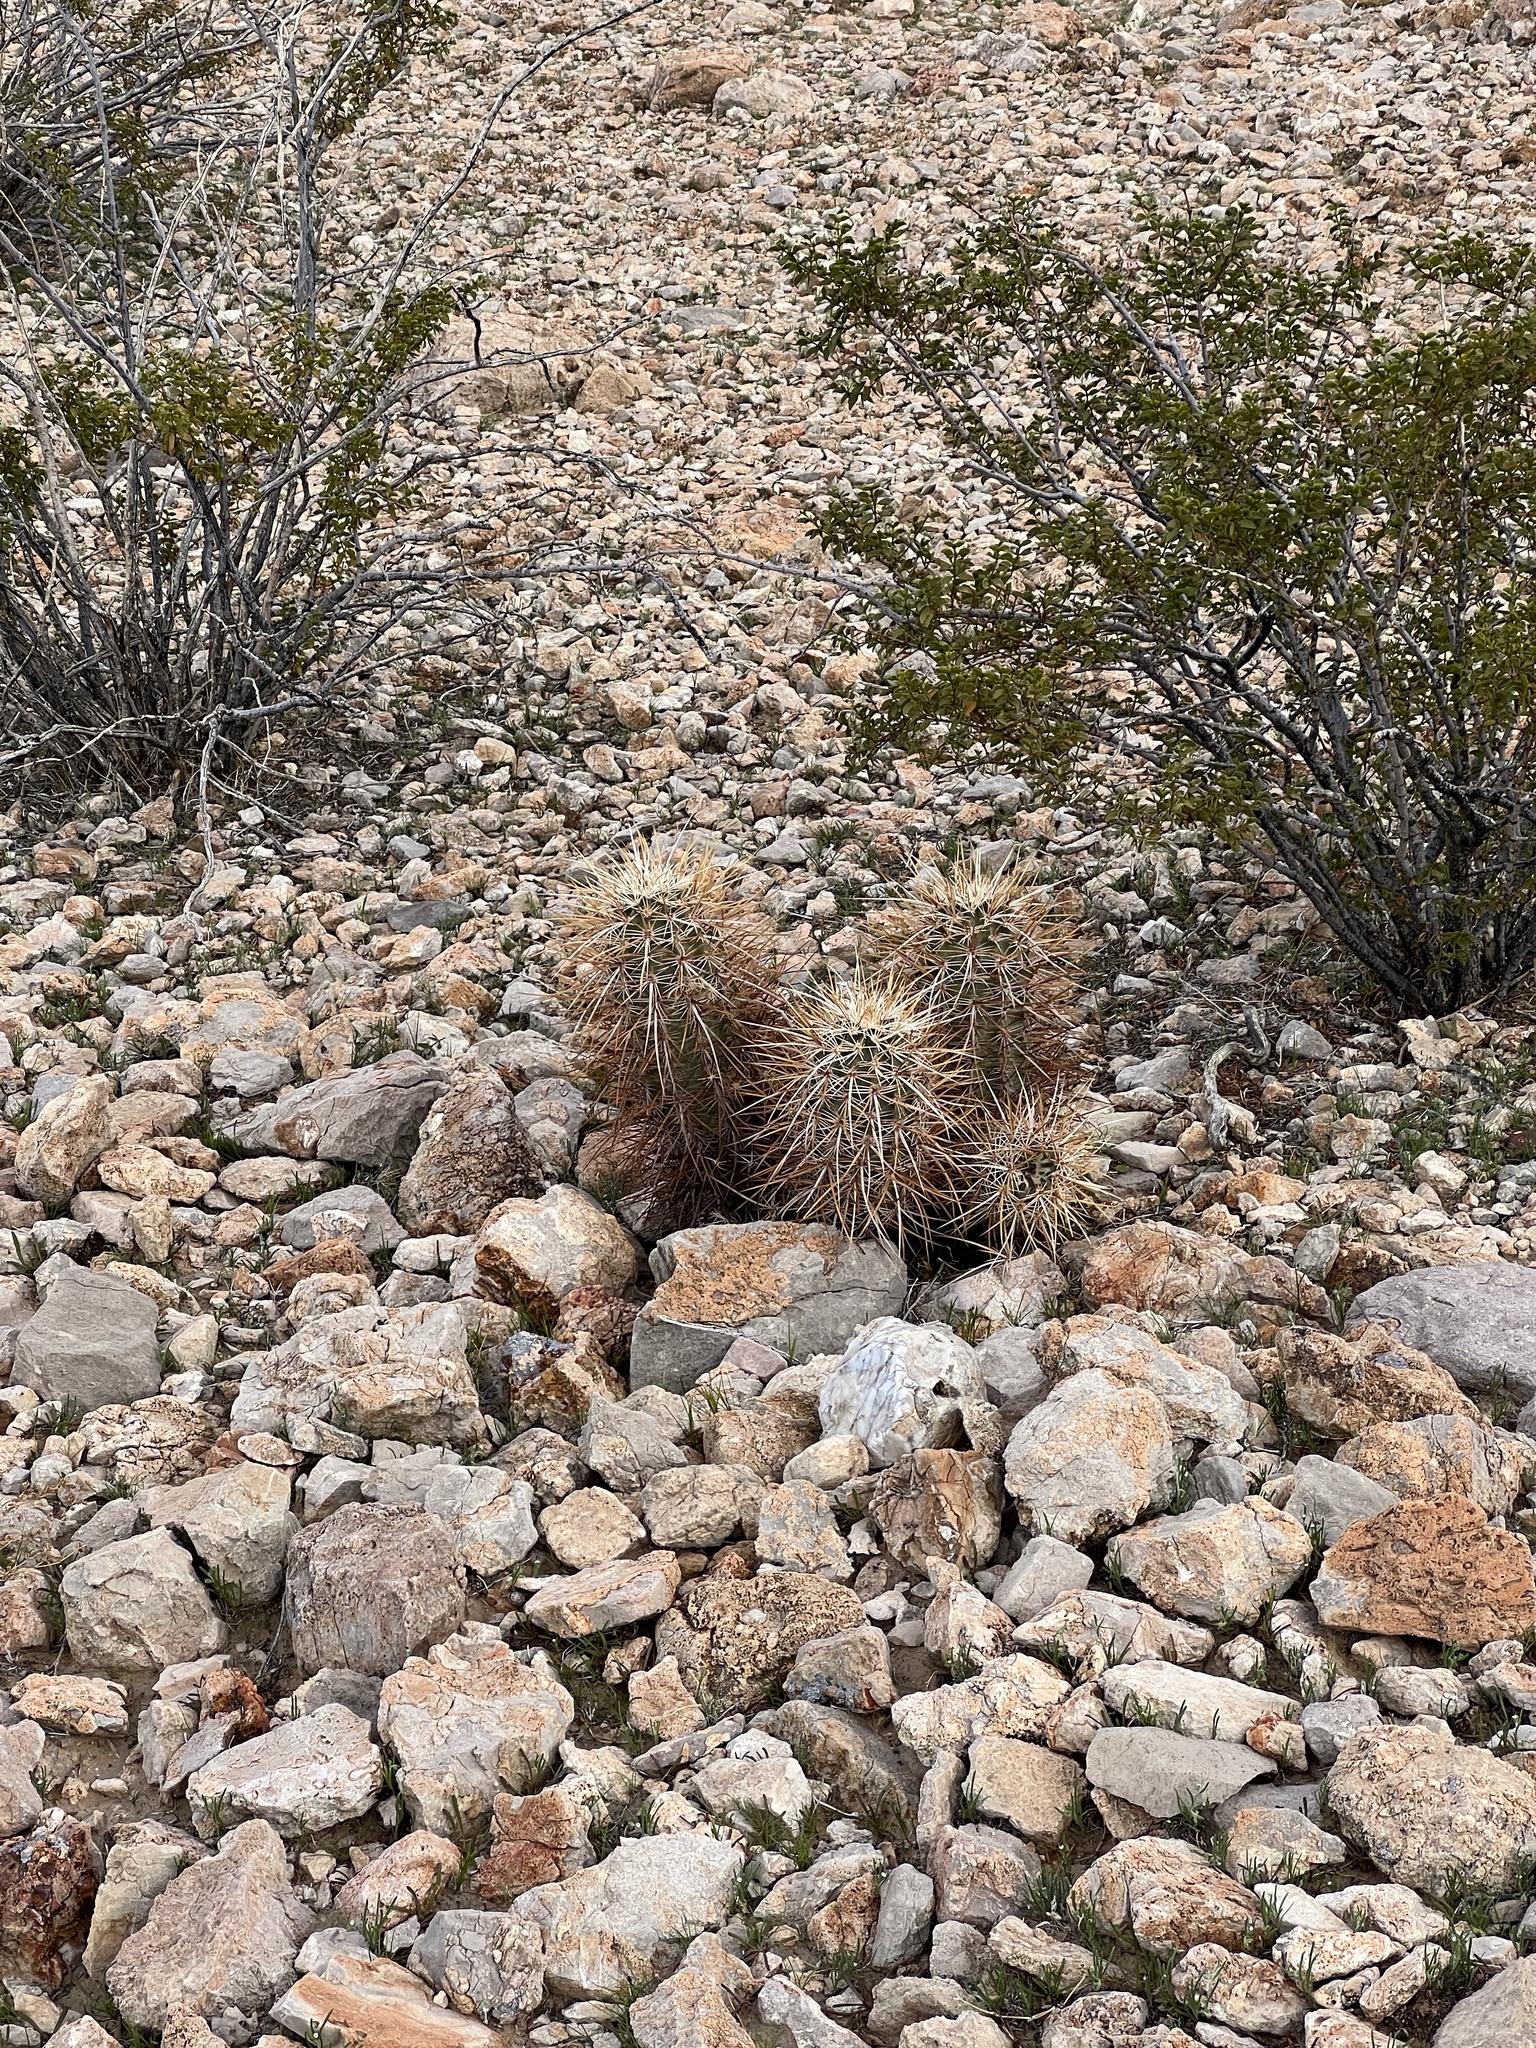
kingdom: Plantae
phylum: Tracheophyta
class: Magnoliopsida
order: Caryophyllales
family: Cactaceae
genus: Echinocereus
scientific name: Echinocereus engelmannii
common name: Engelmann's hedgehog cactus
